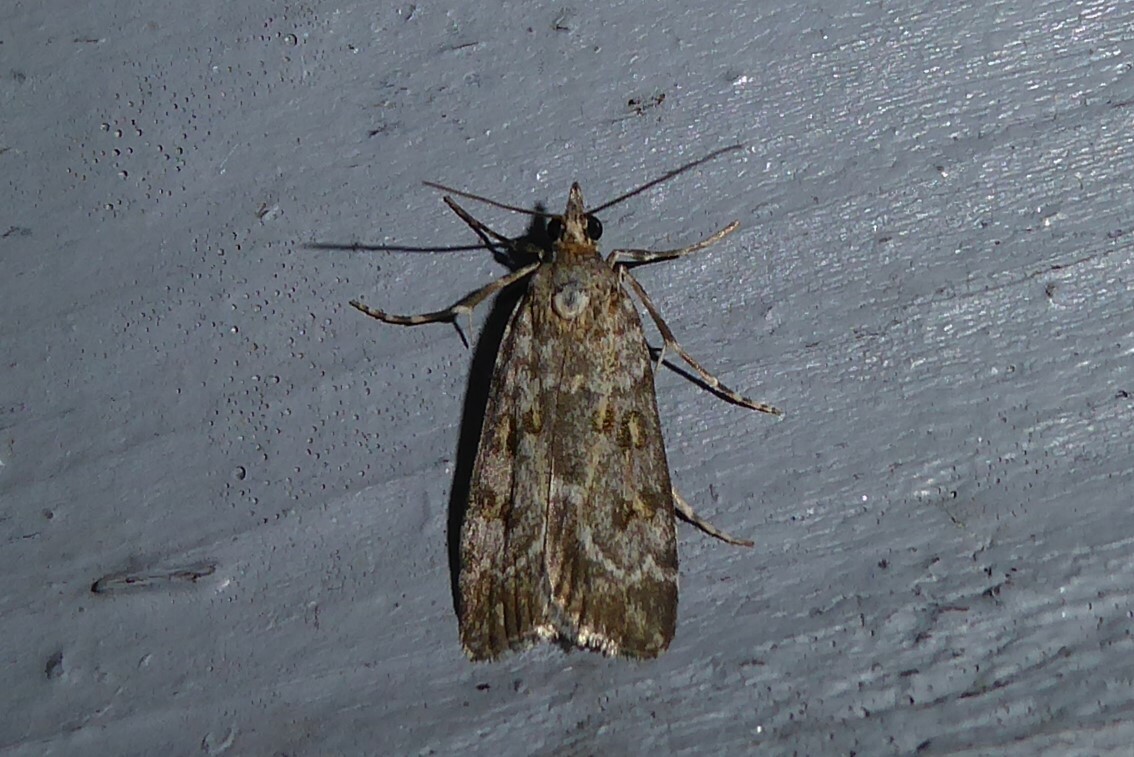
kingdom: Animalia
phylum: Arthropoda
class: Insecta
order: Lepidoptera
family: Crambidae
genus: Scoparia
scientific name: Scoparia tetracycla
